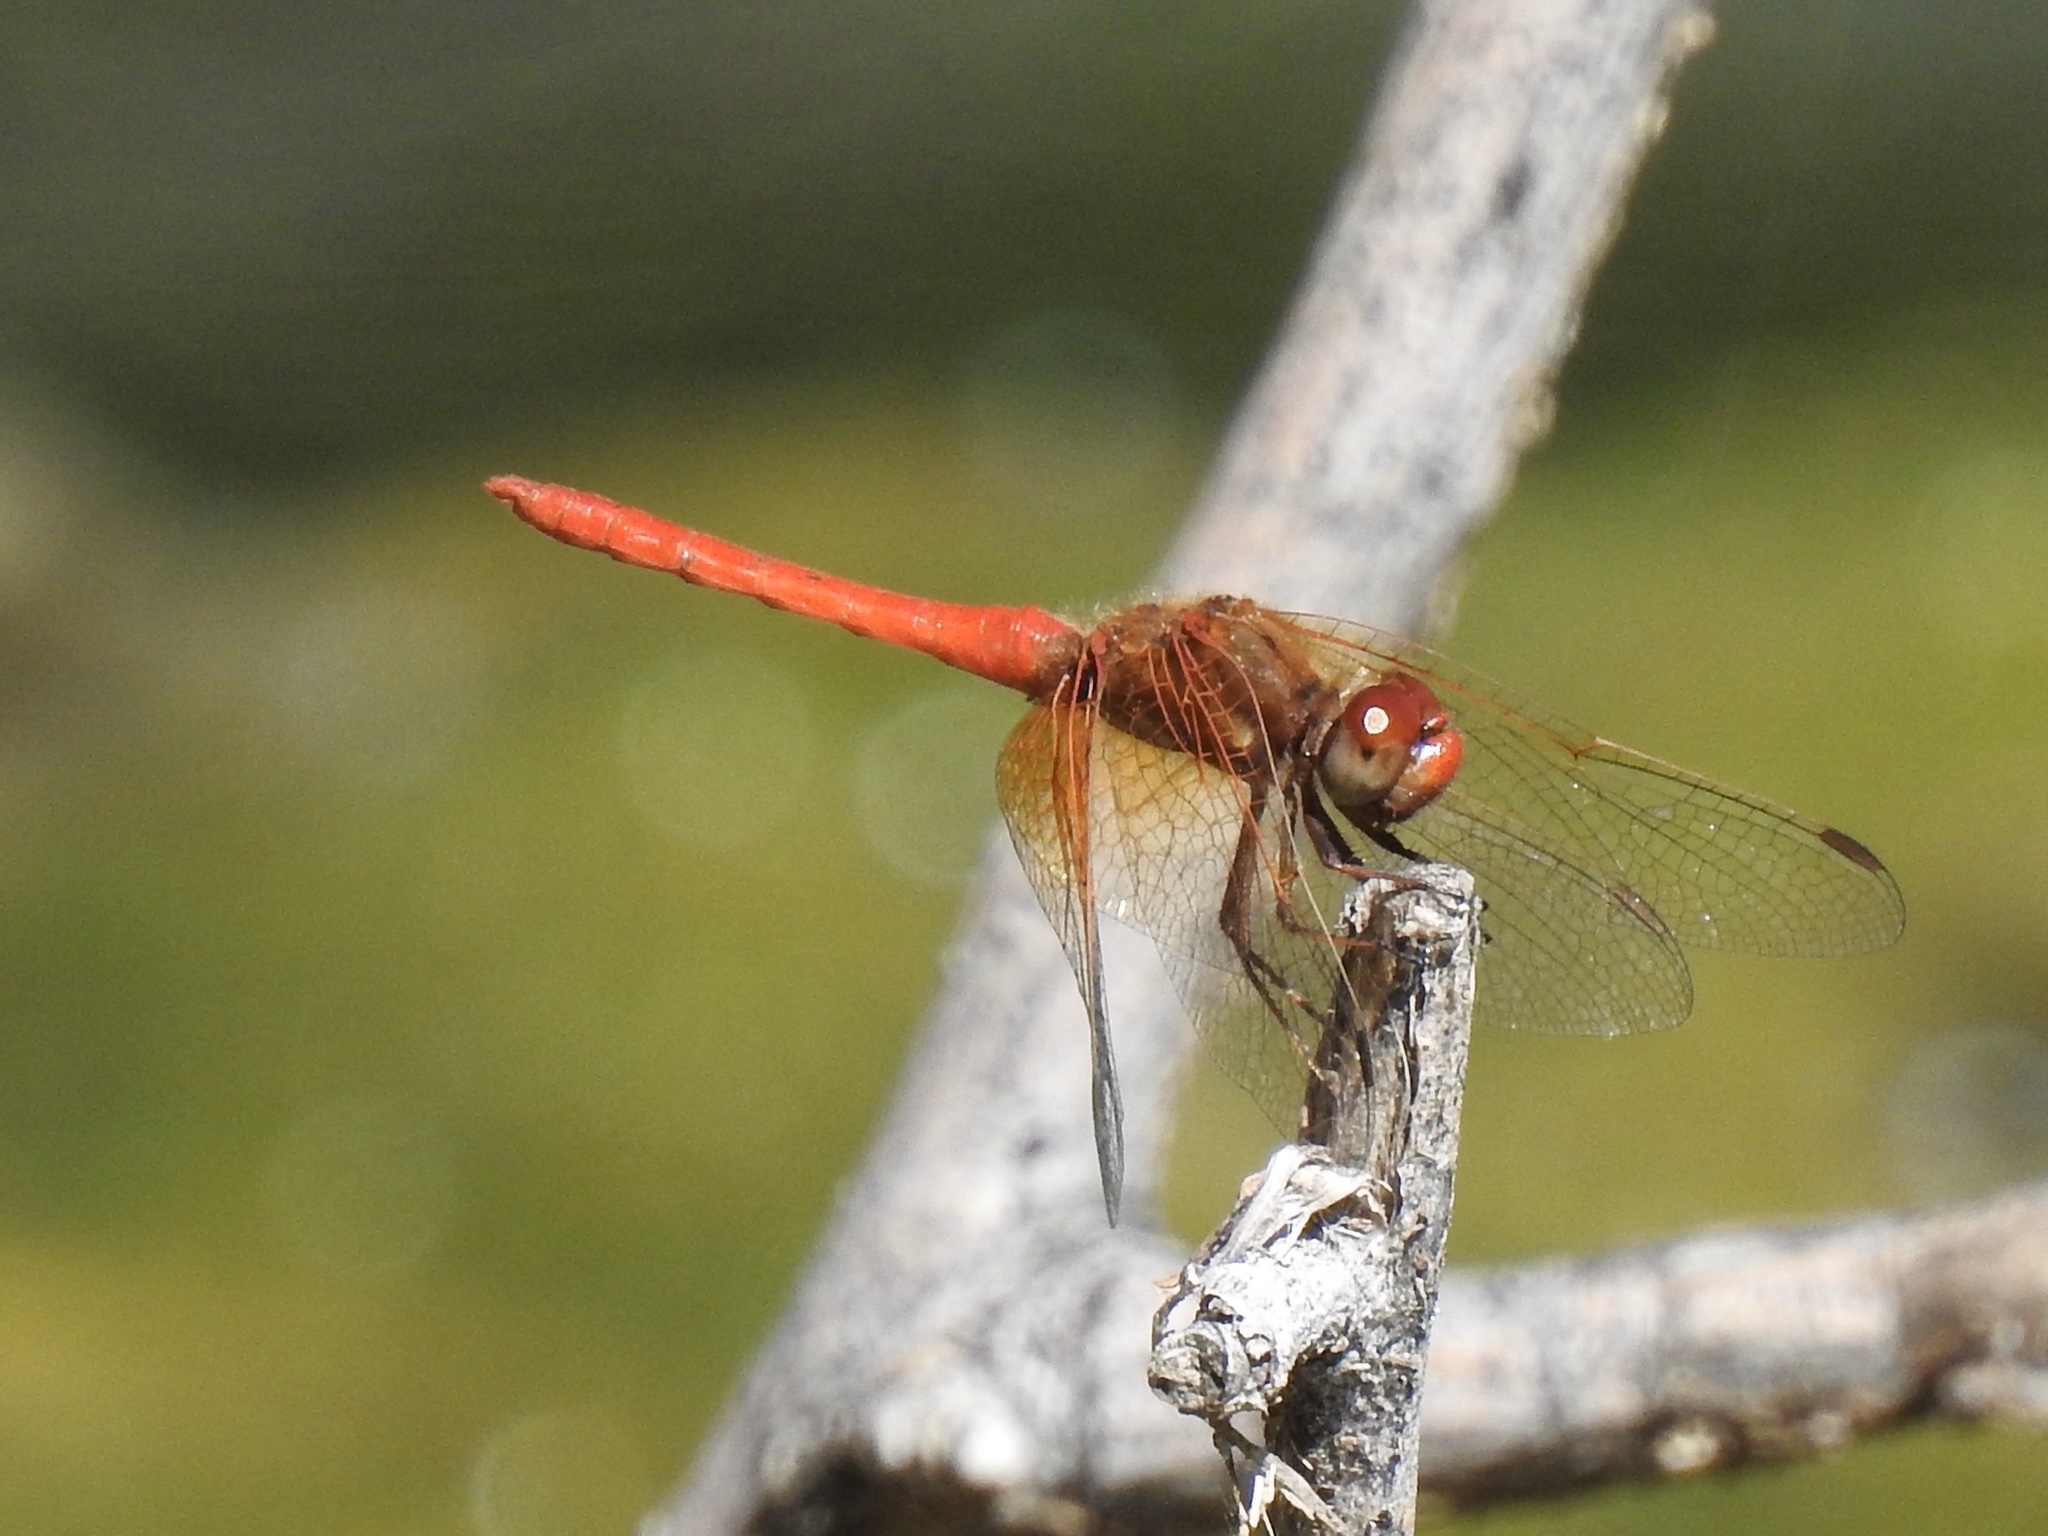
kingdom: Animalia
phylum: Arthropoda
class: Insecta
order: Odonata
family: Libellulidae
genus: Sympetrum
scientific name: Sympetrum illotum
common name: Cardinal meadowhawk
